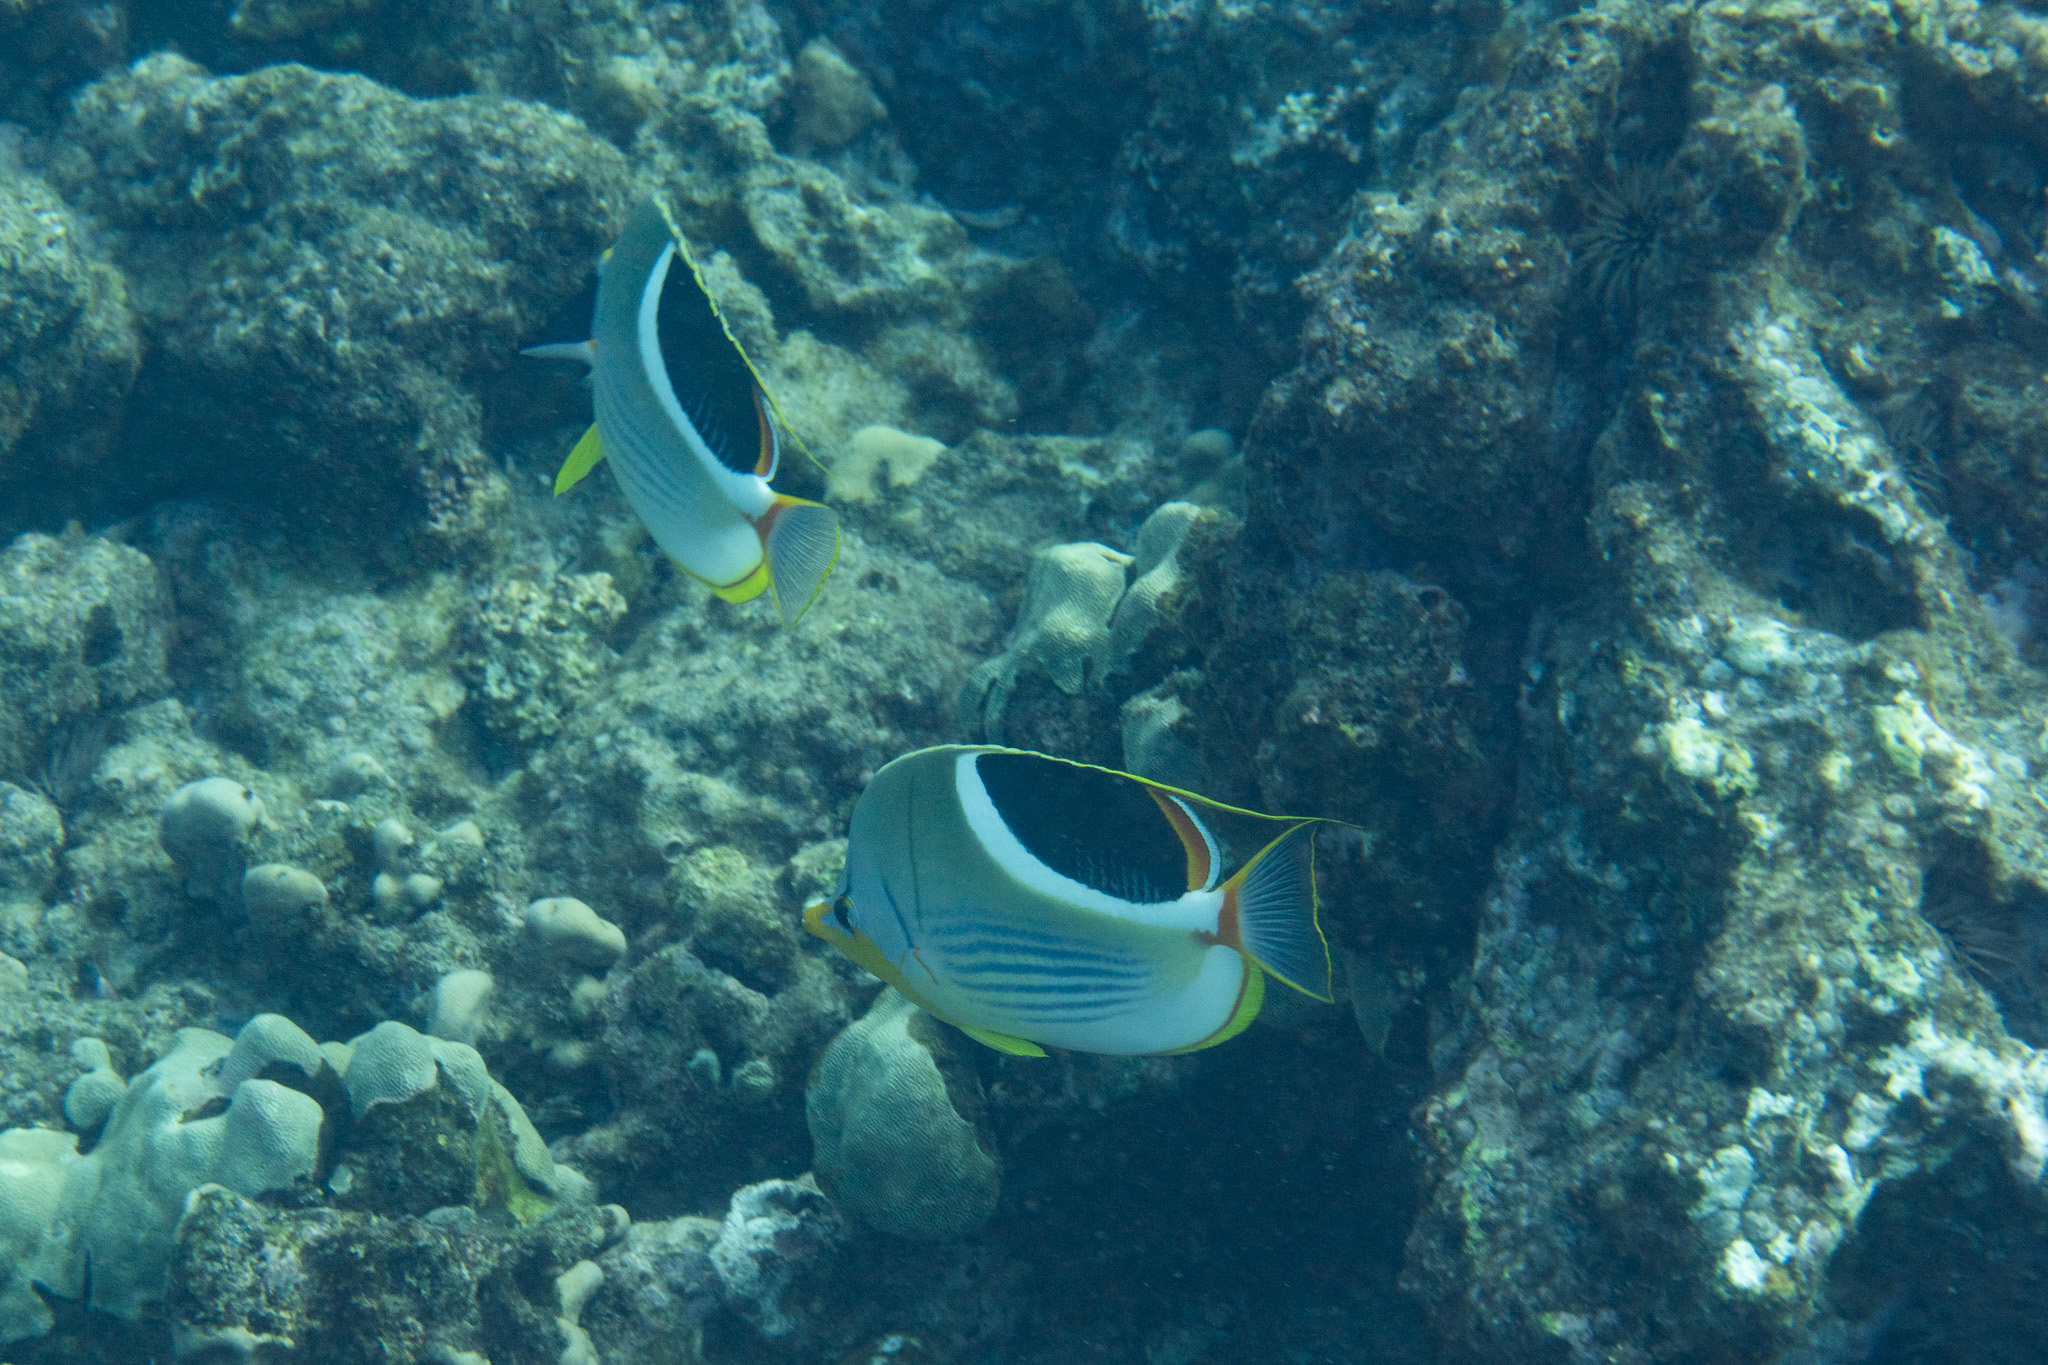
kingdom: Animalia
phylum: Chordata
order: Perciformes
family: Chaetodontidae
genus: Chaetodon
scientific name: Chaetodon ephippium
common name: Saddled butterflyfish
